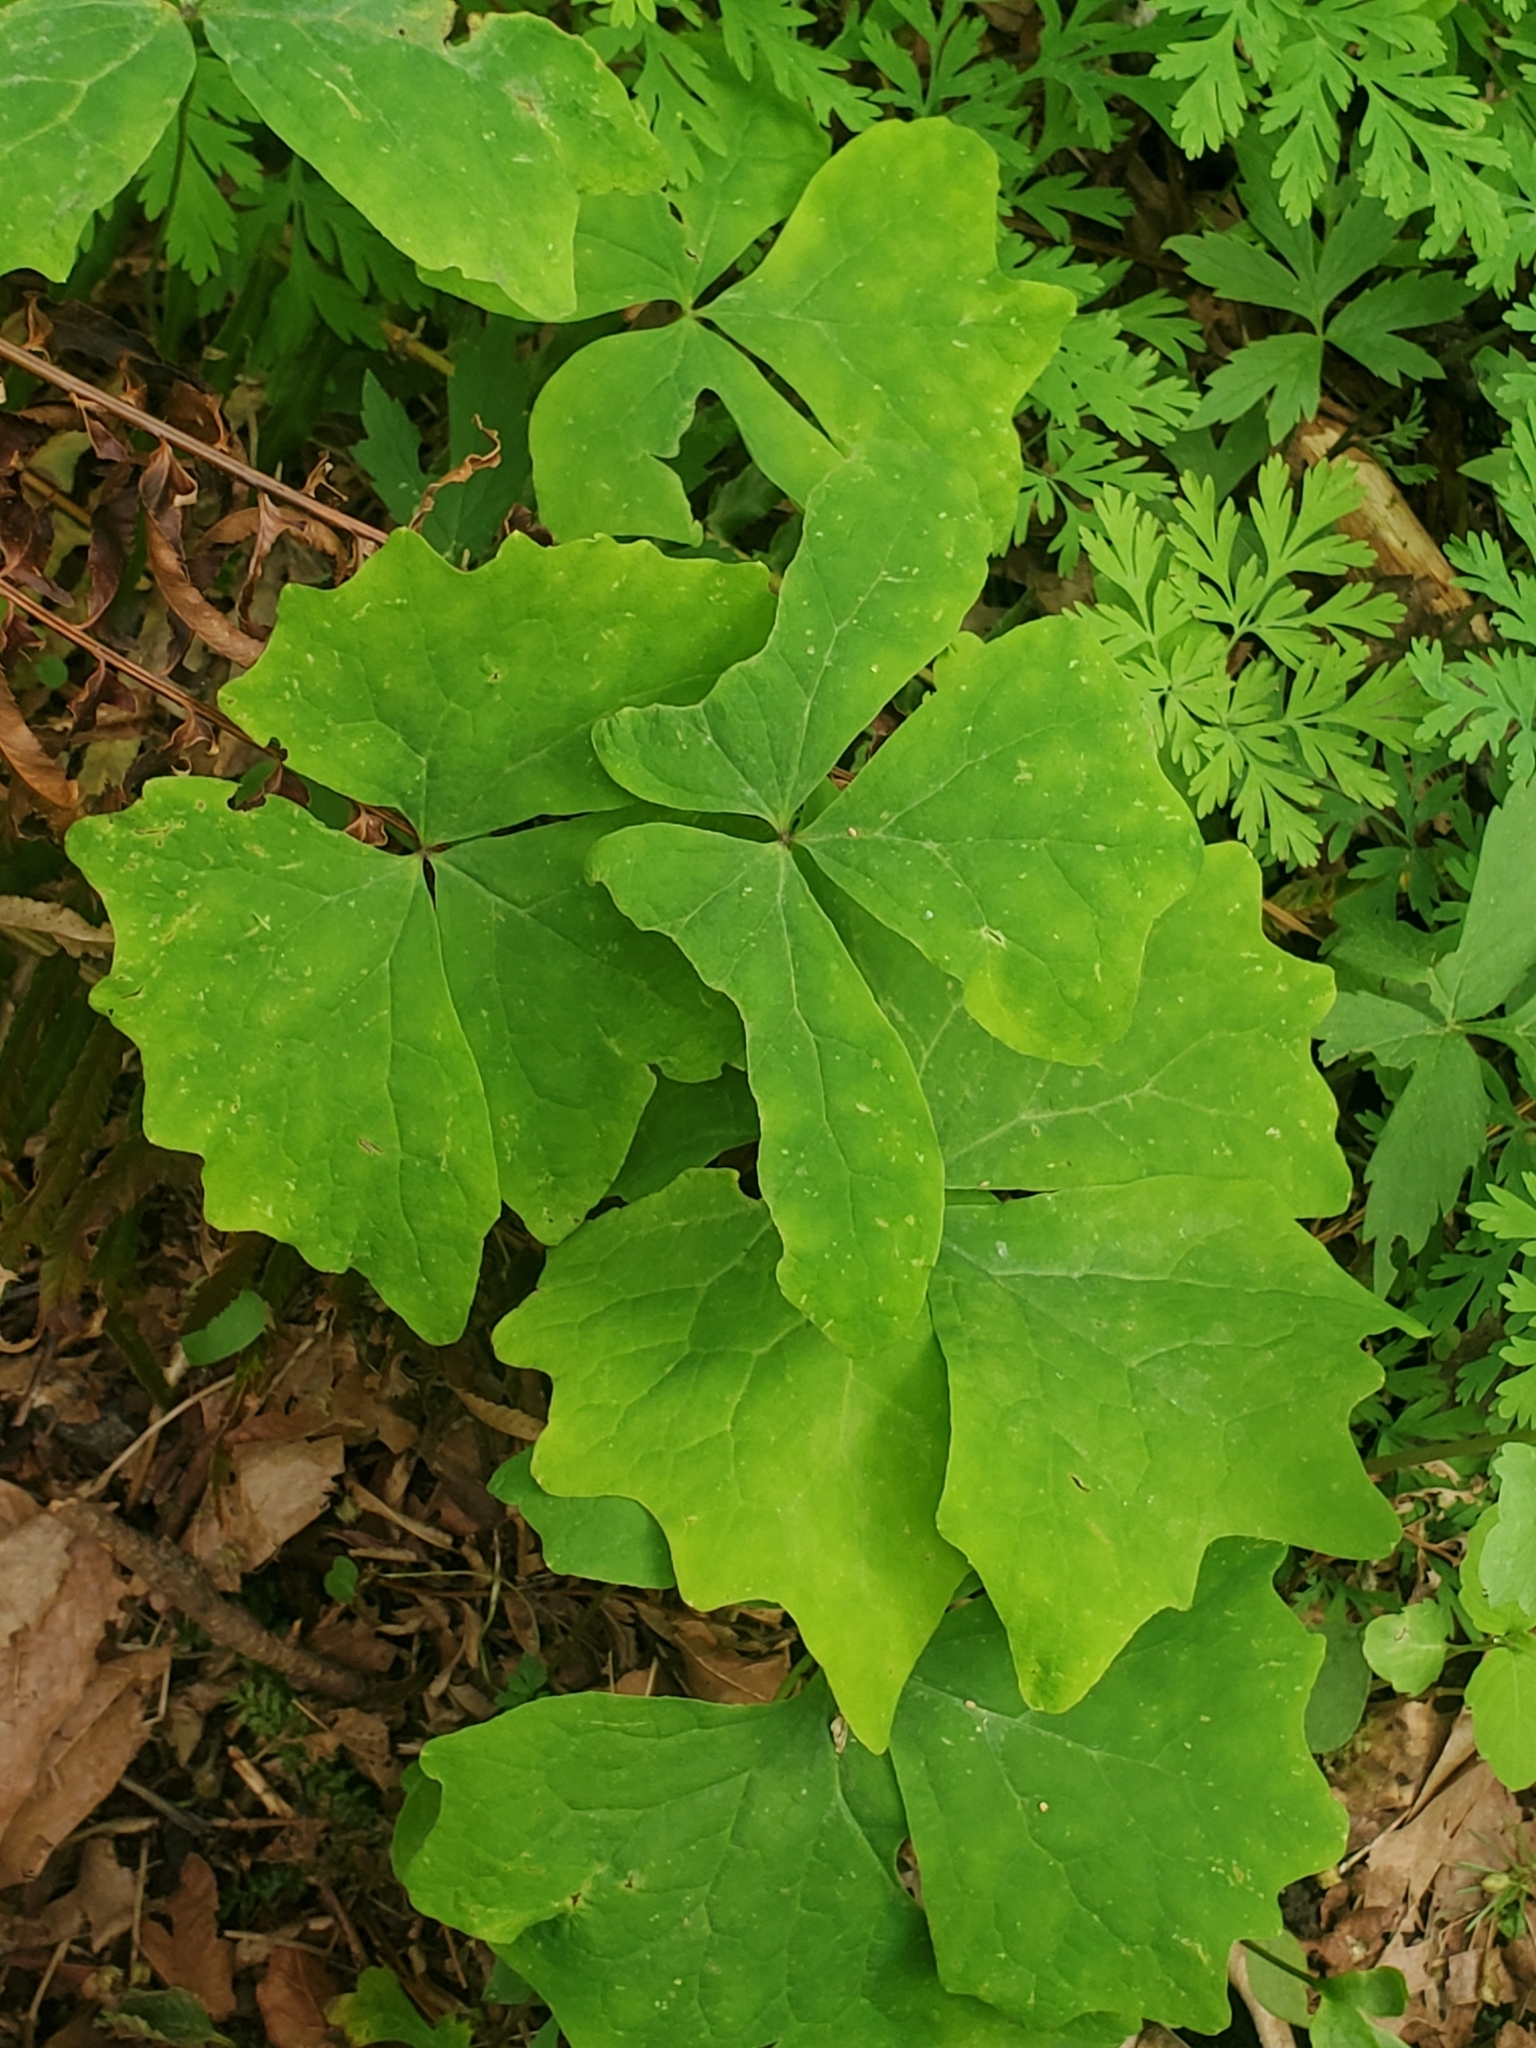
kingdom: Plantae
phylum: Tracheophyta
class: Magnoliopsida
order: Ranunculales
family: Berberidaceae
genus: Achlys
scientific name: Achlys triphylla
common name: Vanilla-leaf
